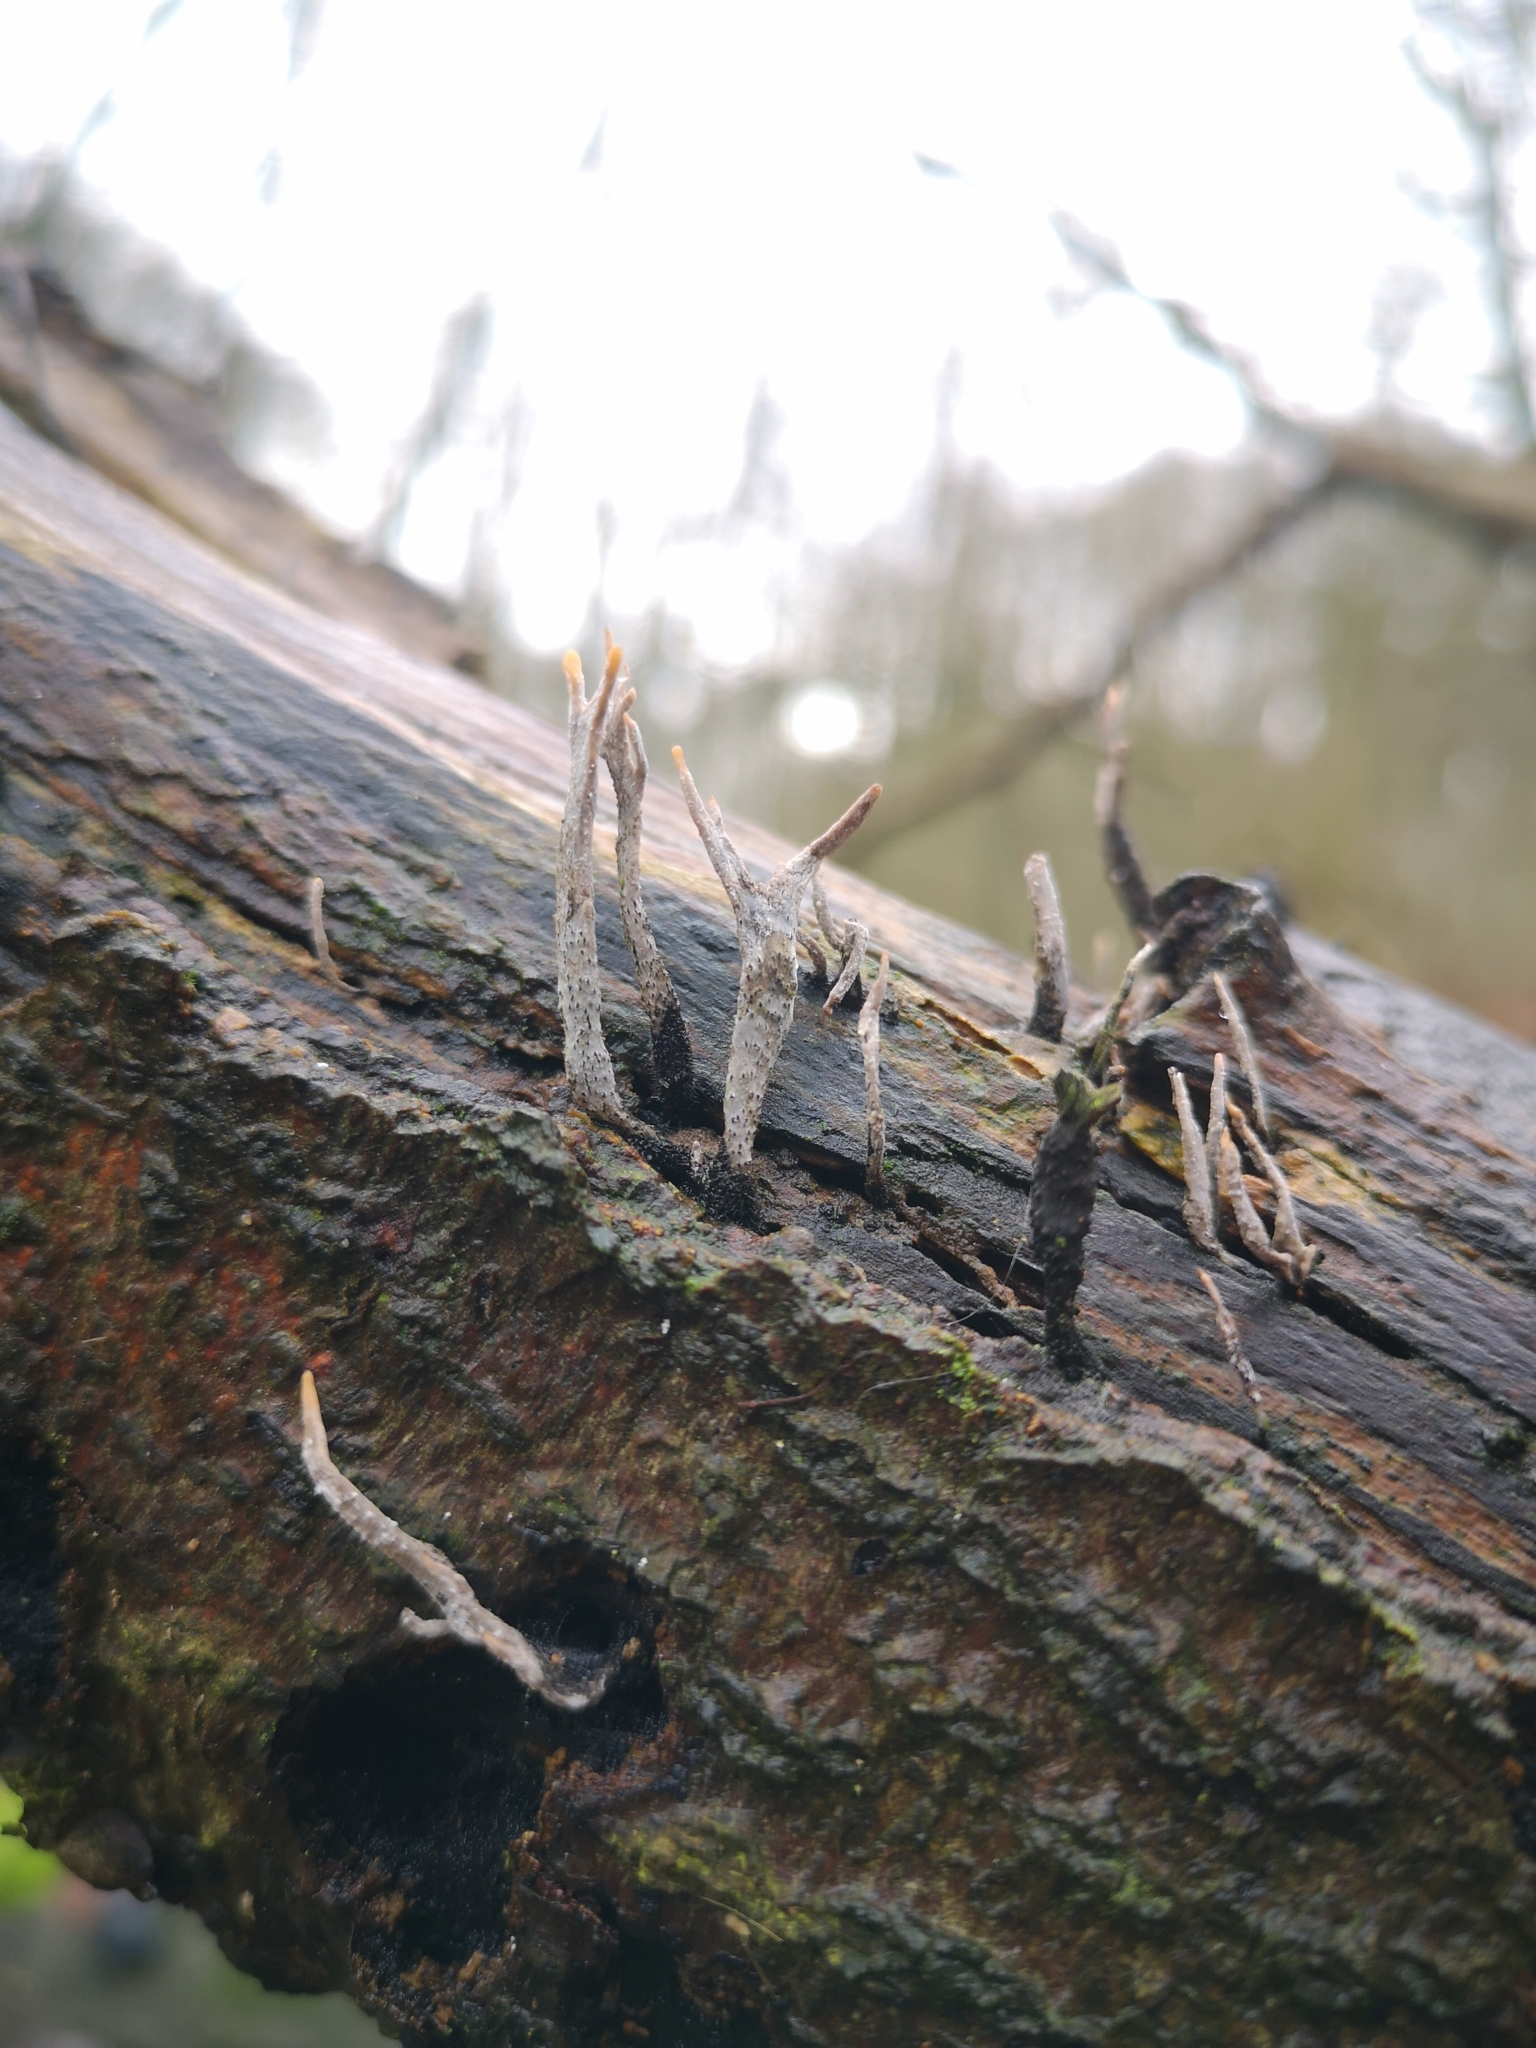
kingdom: Fungi
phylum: Ascomycota
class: Sordariomycetes
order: Xylariales
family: Xylariaceae
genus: Xylaria
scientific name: Xylaria hypoxylon
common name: Candle-snuff fungus
